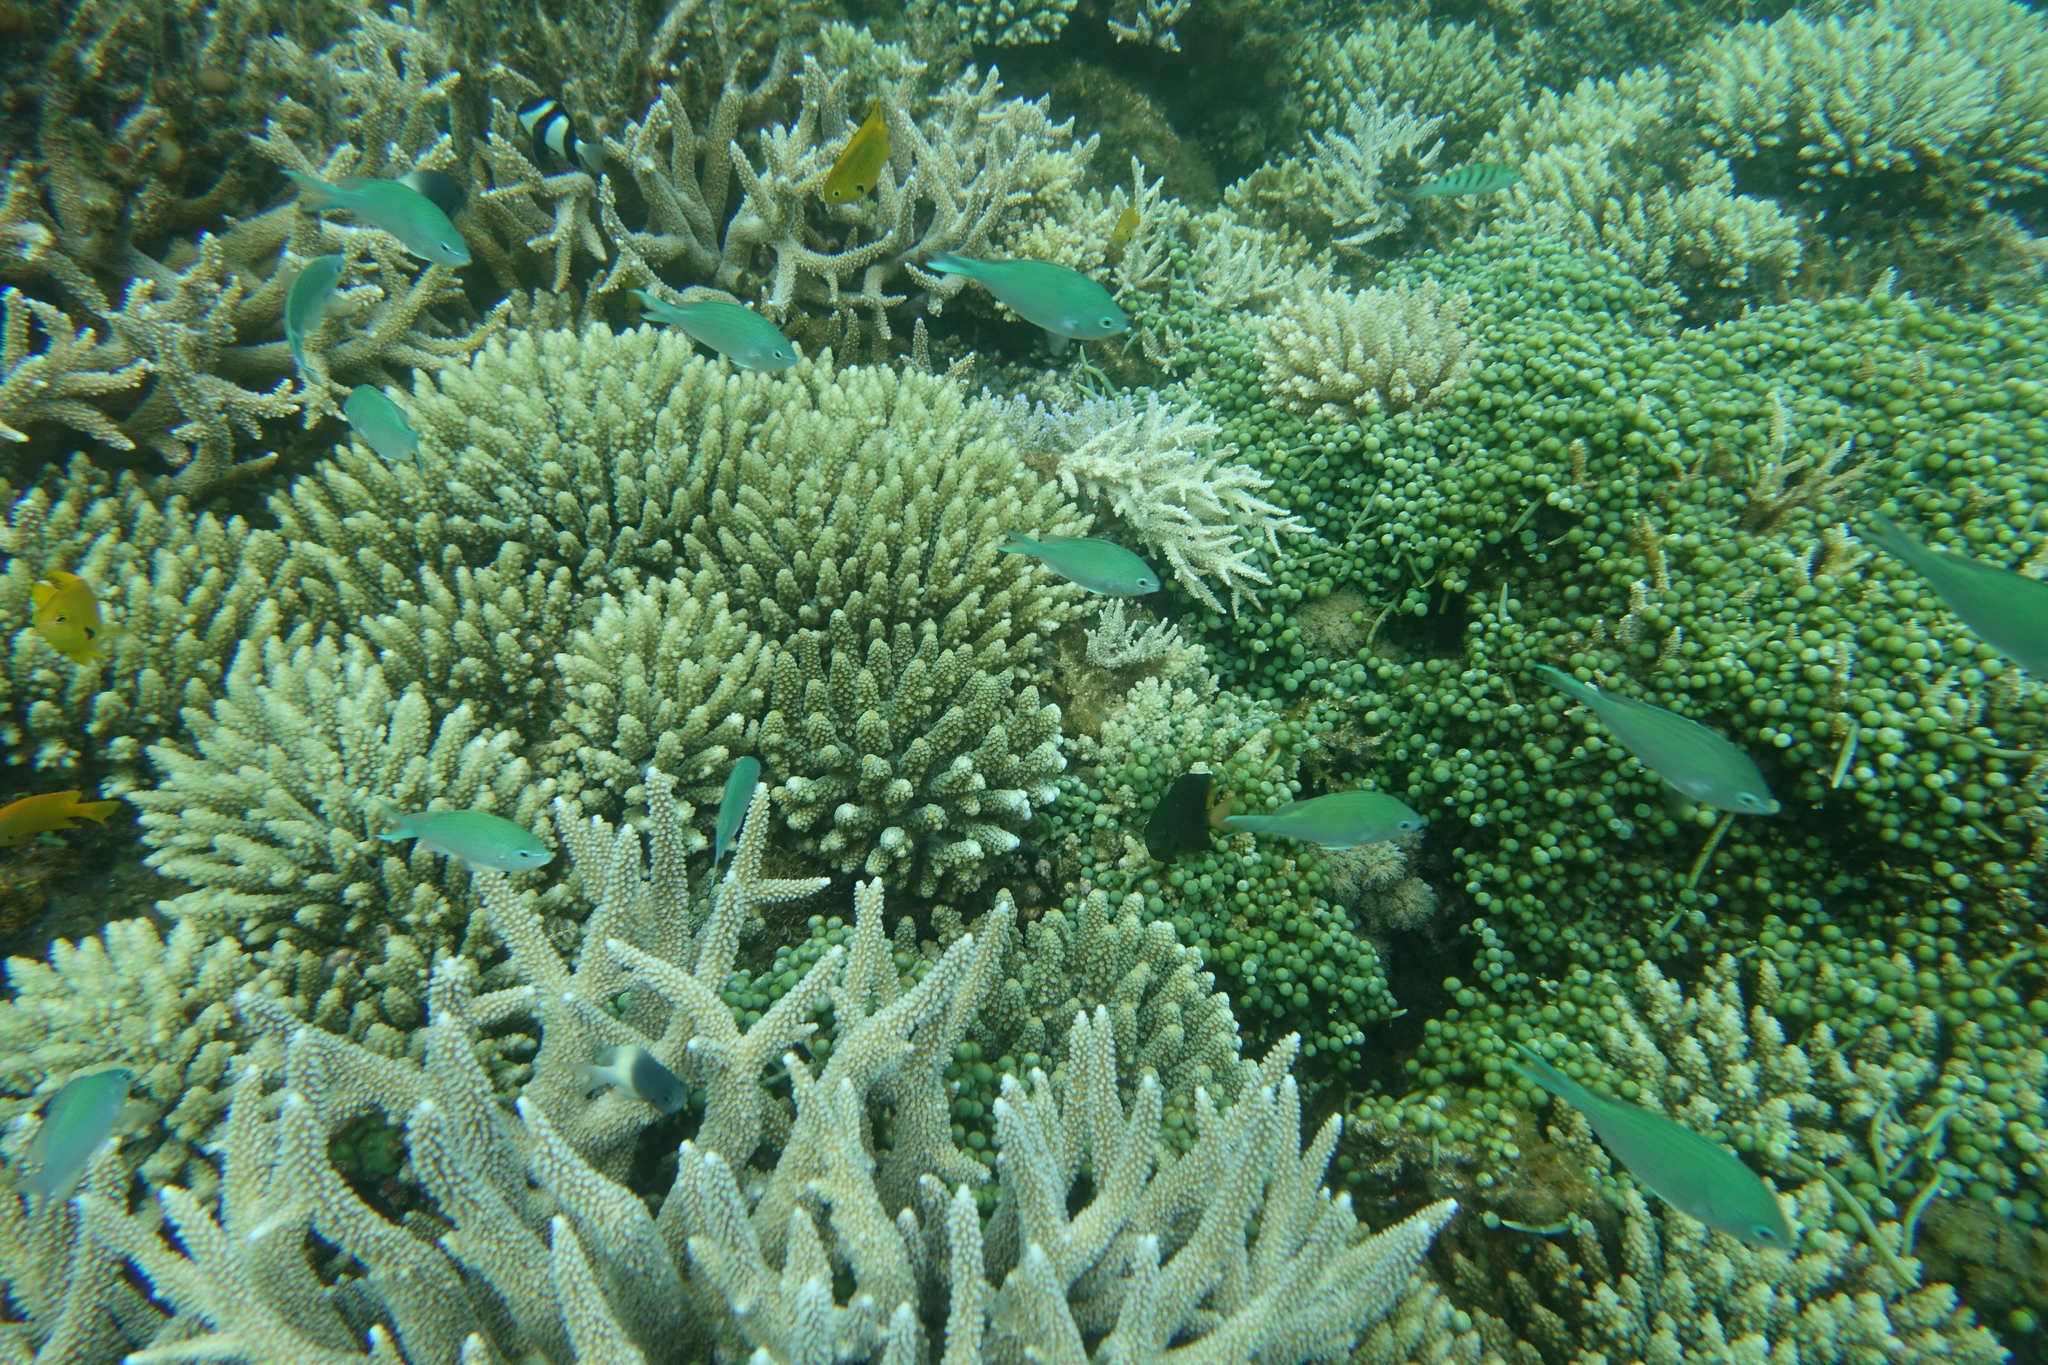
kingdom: Animalia
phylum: Chordata
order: Perciformes
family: Pomacentridae
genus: Chromis
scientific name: Chromis viridis
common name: Blue-green chromis
